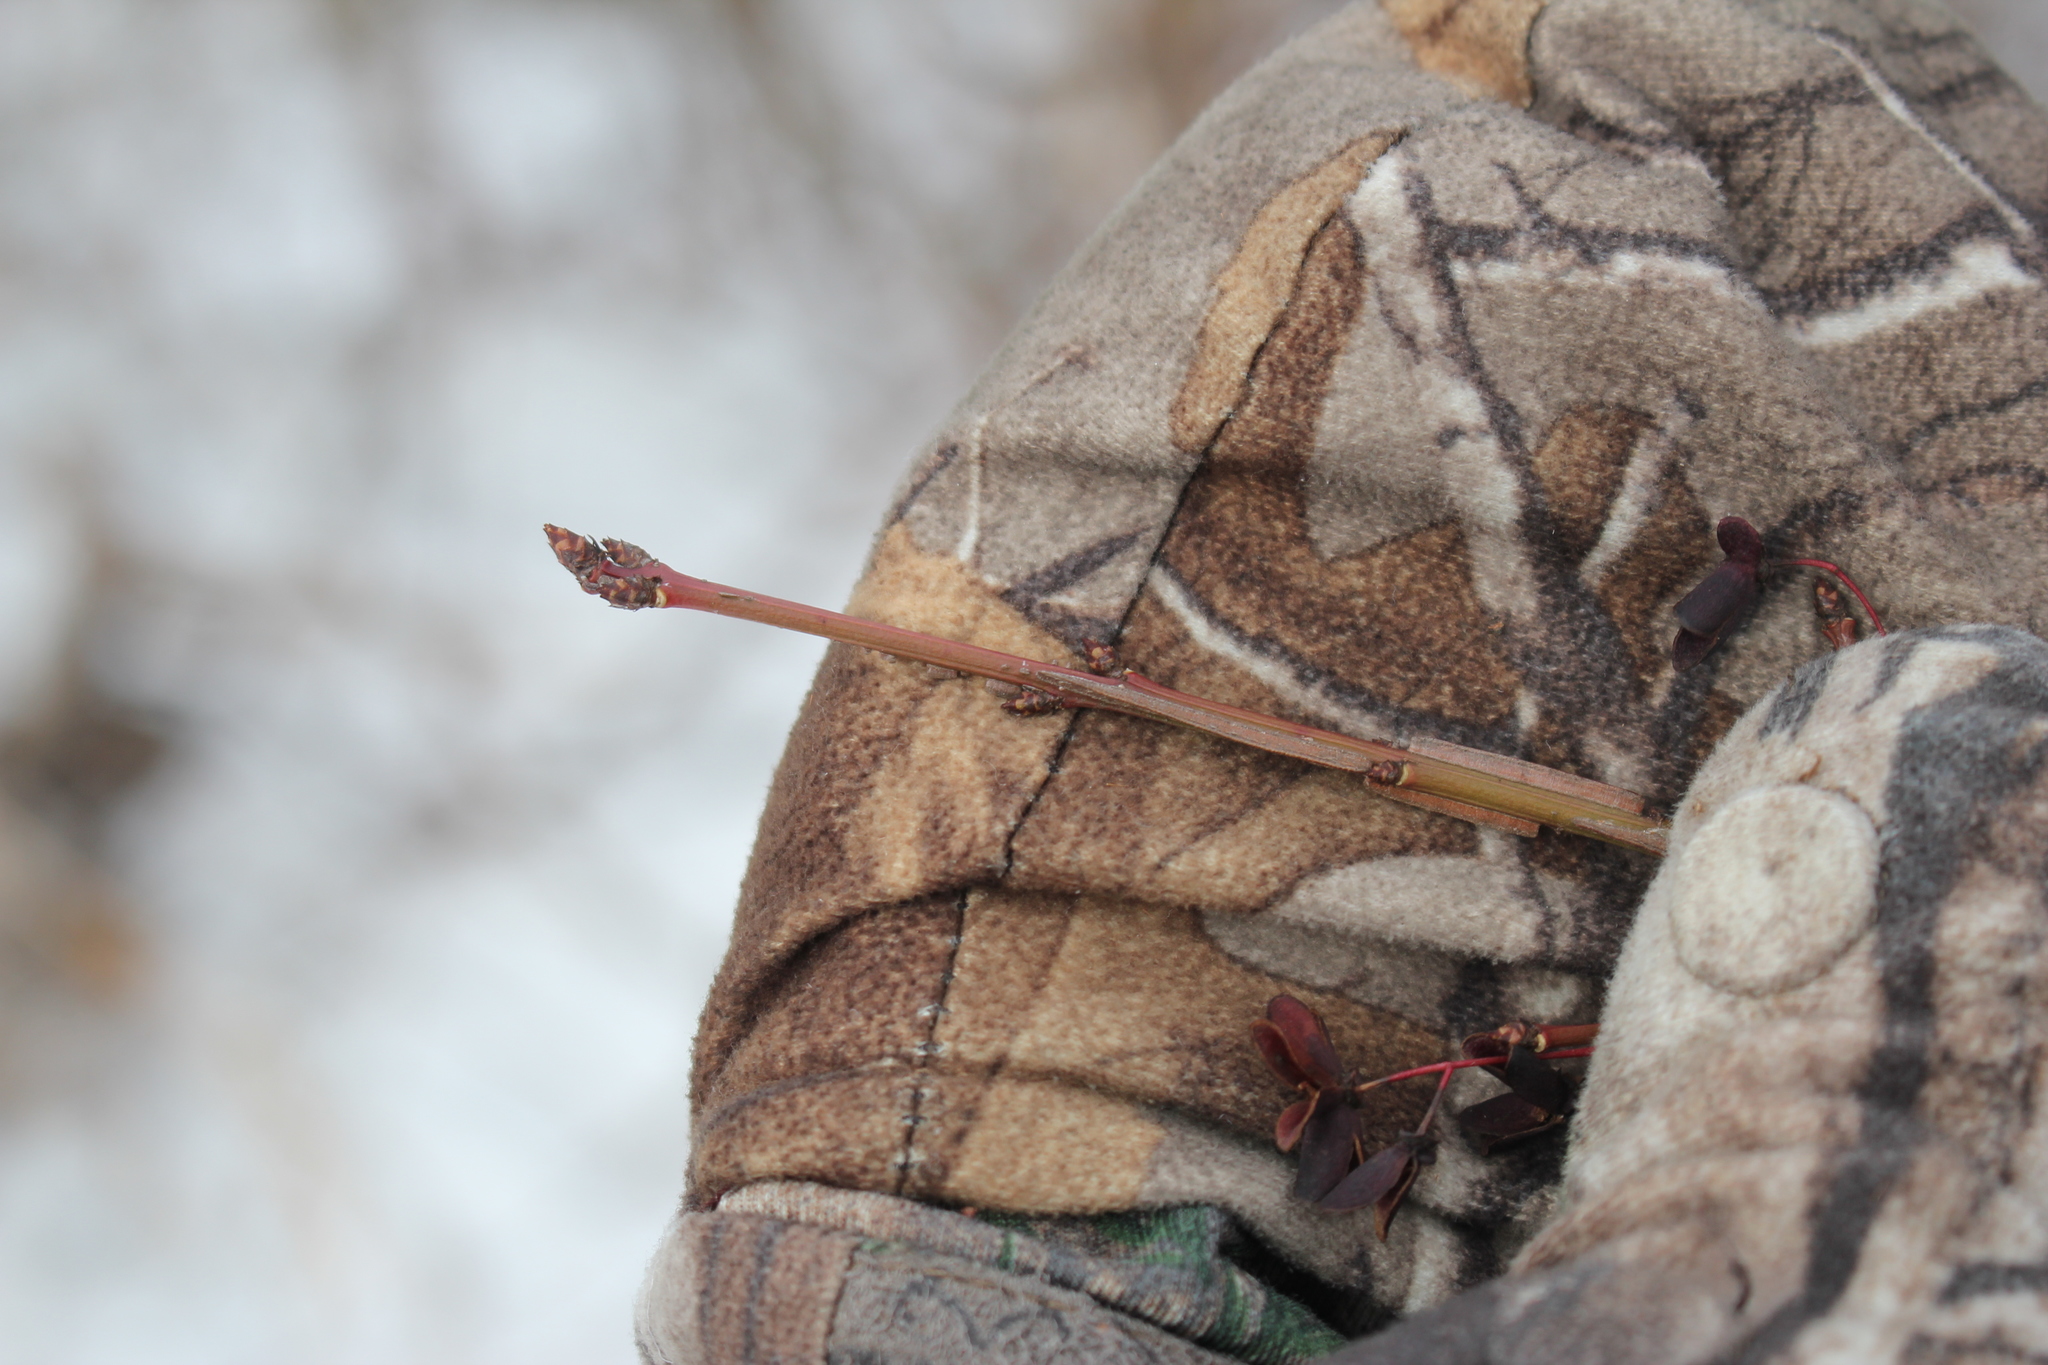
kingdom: Plantae
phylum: Tracheophyta
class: Magnoliopsida
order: Celastrales
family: Celastraceae
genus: Euonymus
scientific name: Euonymus alatus
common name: Winged euonymus
